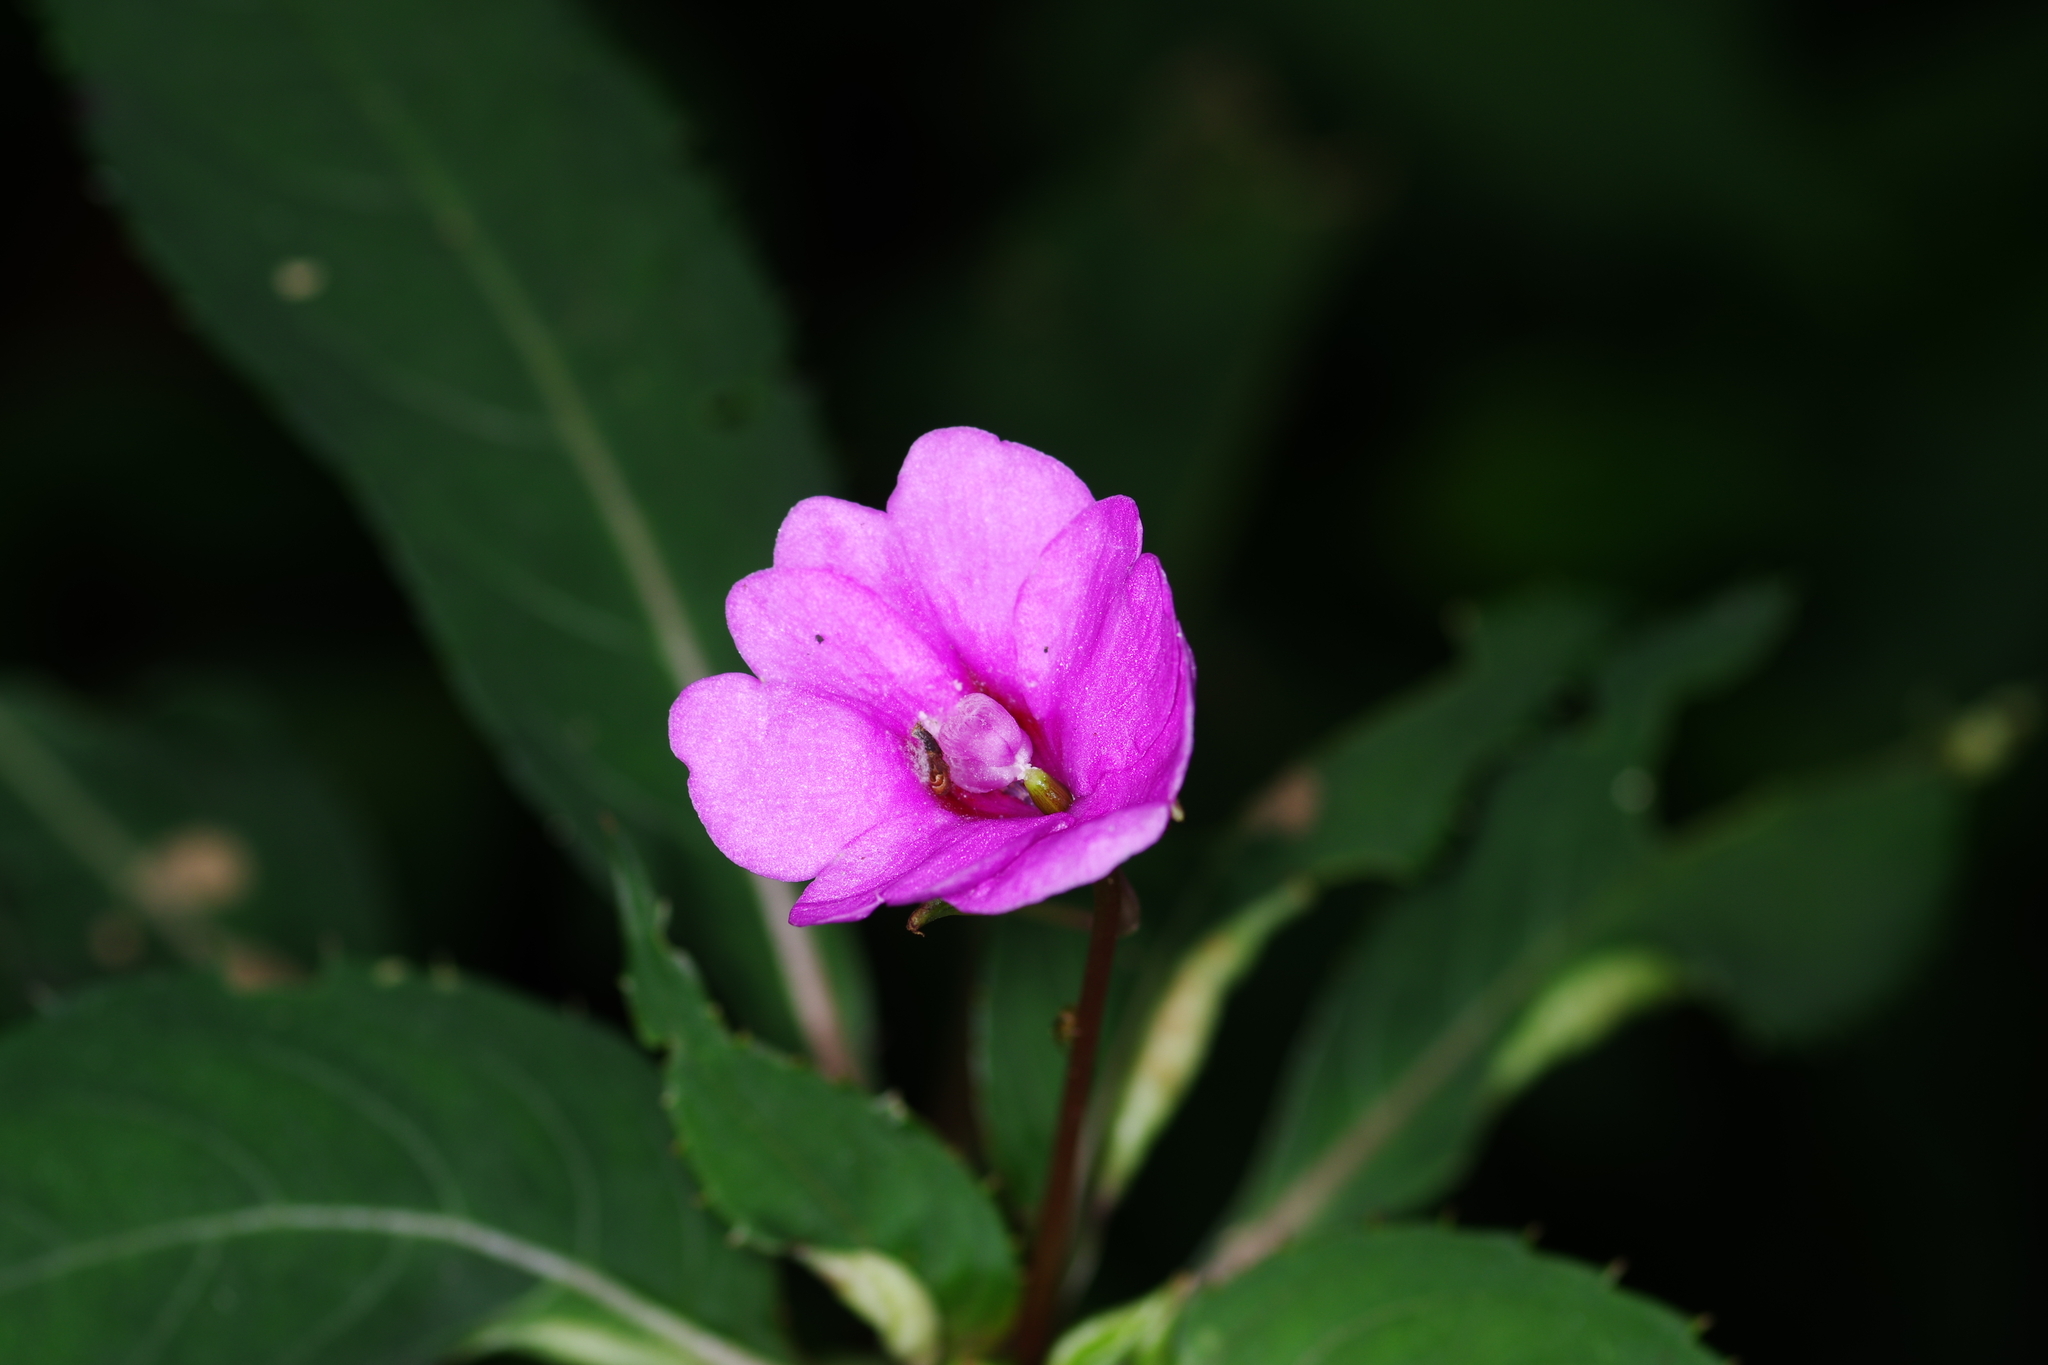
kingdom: Plantae
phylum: Tracheophyta
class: Magnoliopsida
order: Ericales
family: Balsaminaceae
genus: Impatiens
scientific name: Impatiens platypetala
